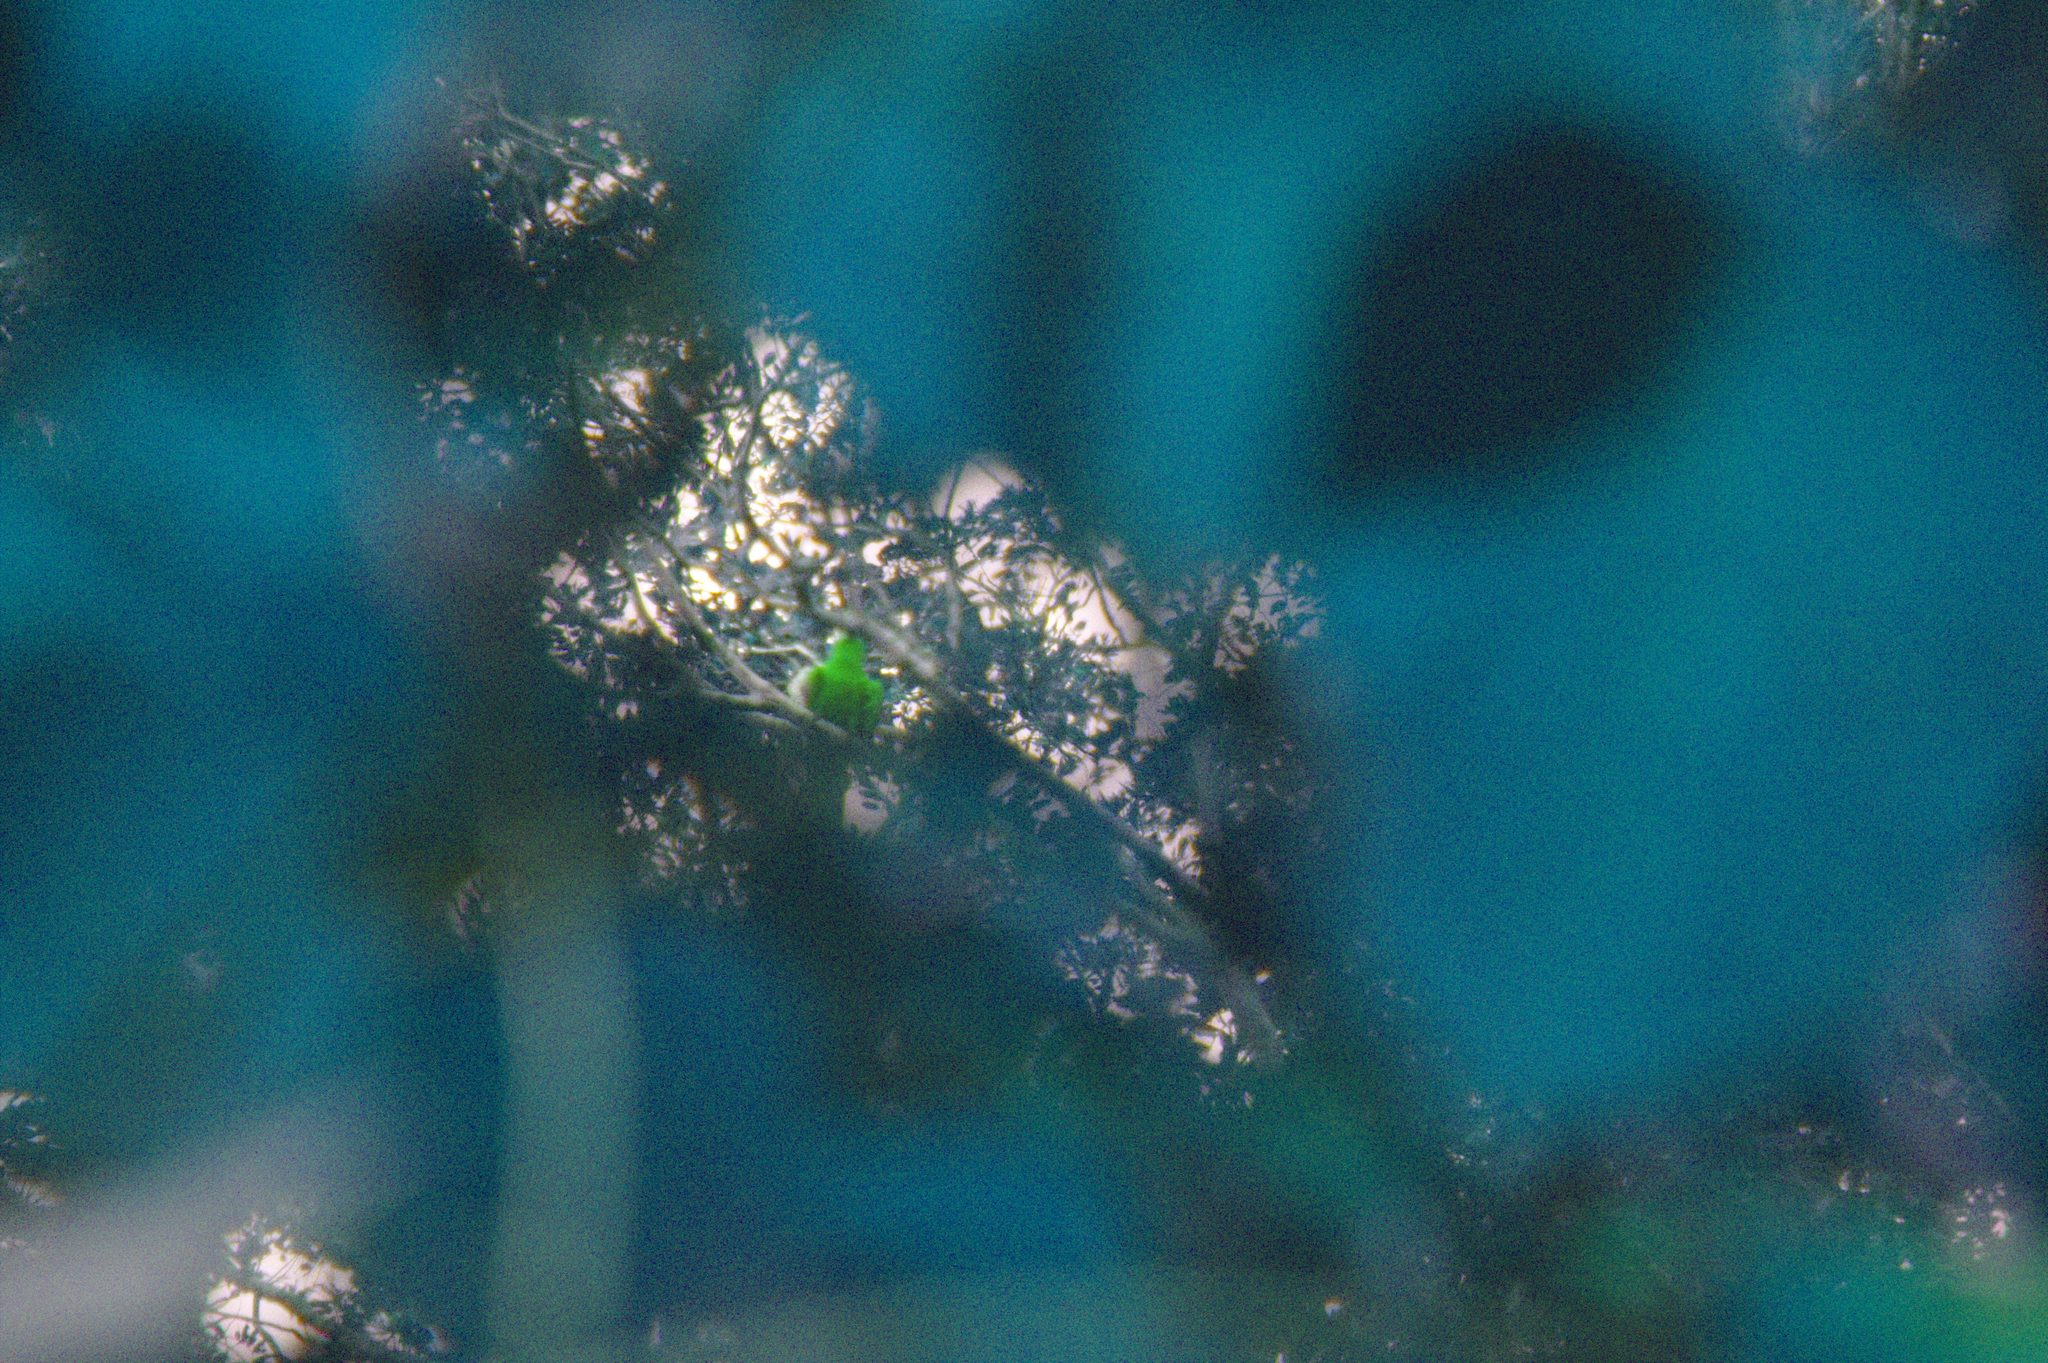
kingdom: Animalia
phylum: Chordata
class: Aves
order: Psittaciformes
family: Psittacidae
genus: Ara
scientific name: Ara macao
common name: Scarlet macaw
